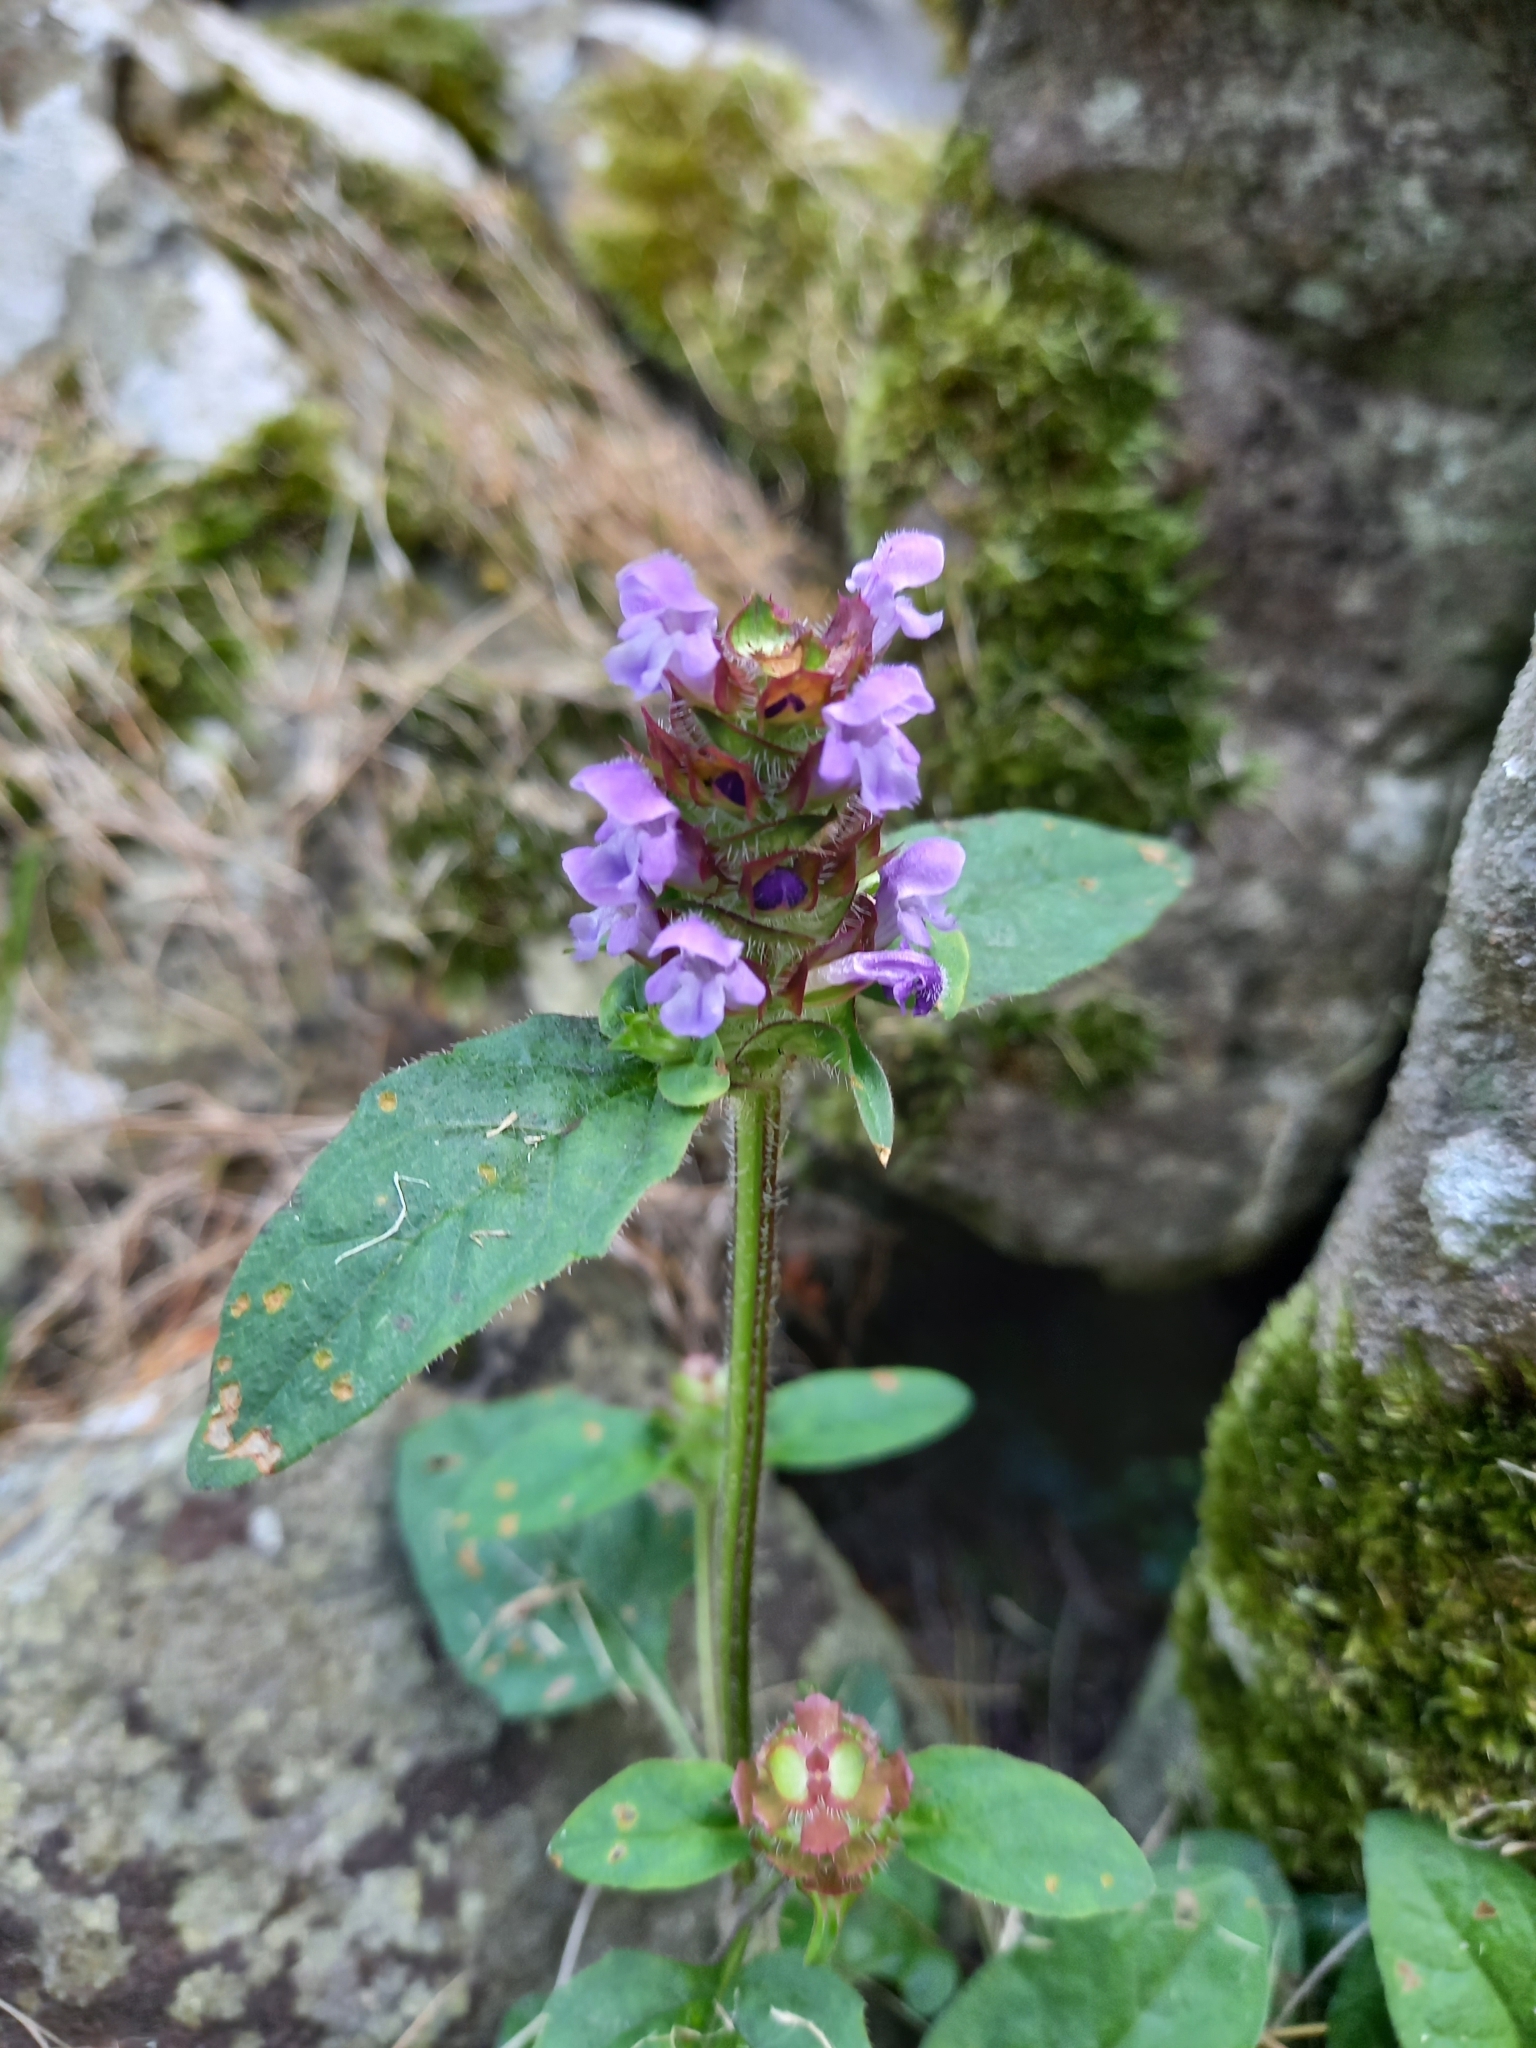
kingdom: Plantae
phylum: Tracheophyta
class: Magnoliopsida
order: Lamiales
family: Lamiaceae
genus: Prunella
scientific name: Prunella vulgaris
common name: Heal-all
